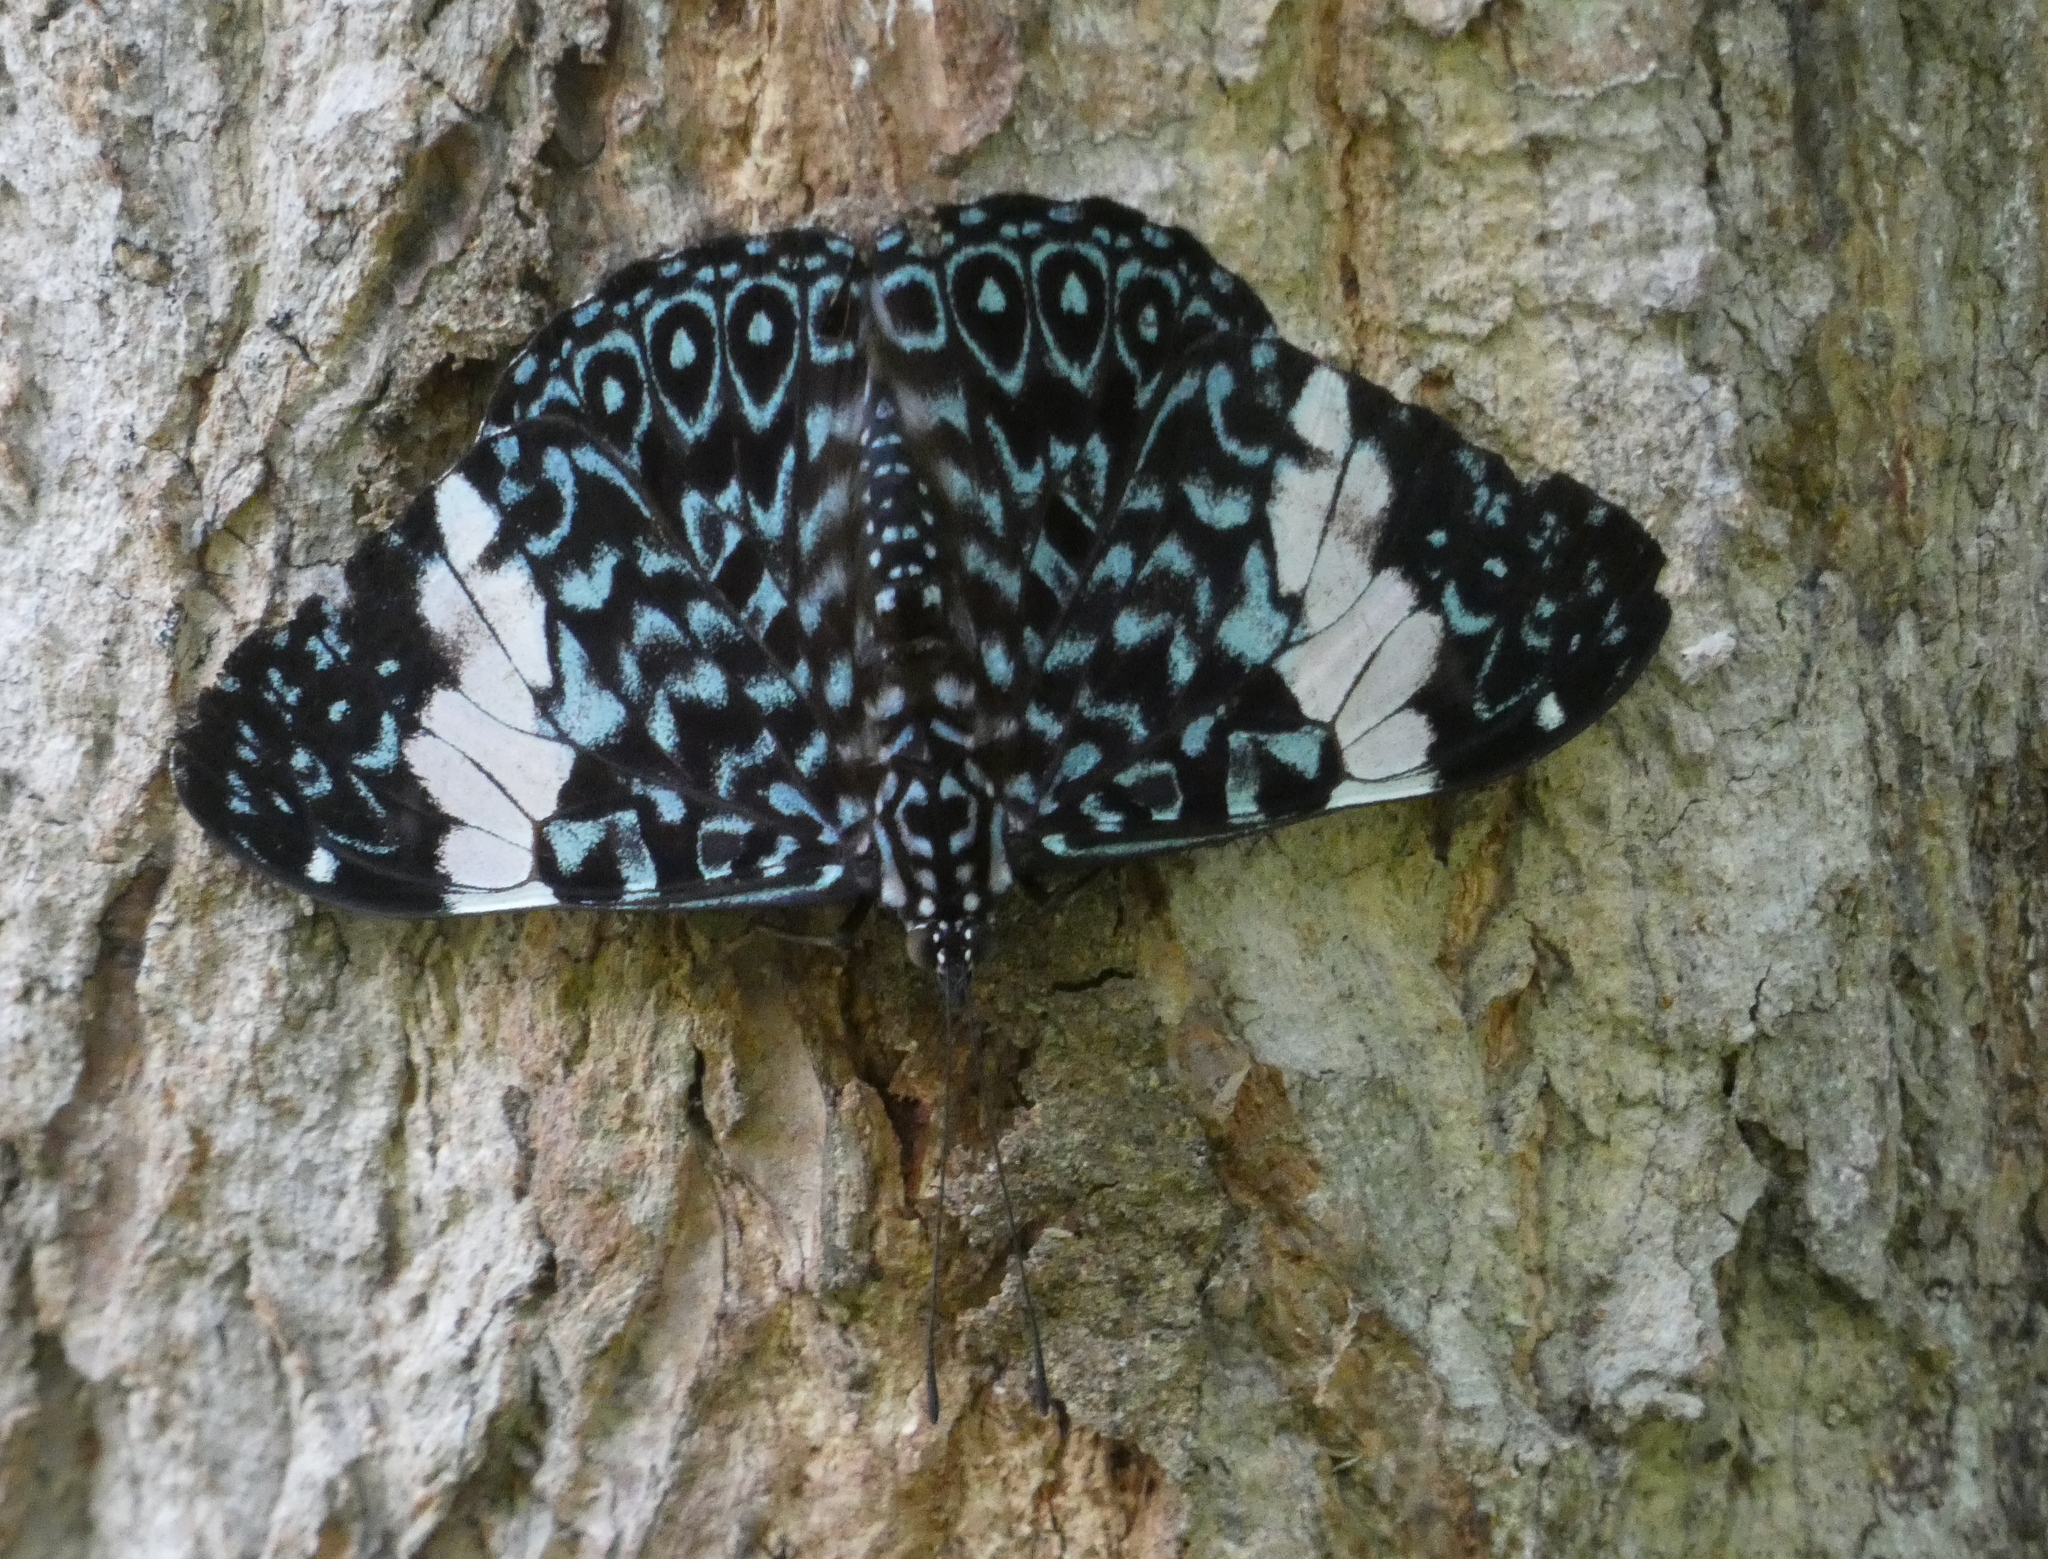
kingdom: Animalia
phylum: Arthropoda
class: Insecta
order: Lepidoptera
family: Nymphalidae
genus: Hamadryas
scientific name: Hamadryas amphinome
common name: Red cracker
